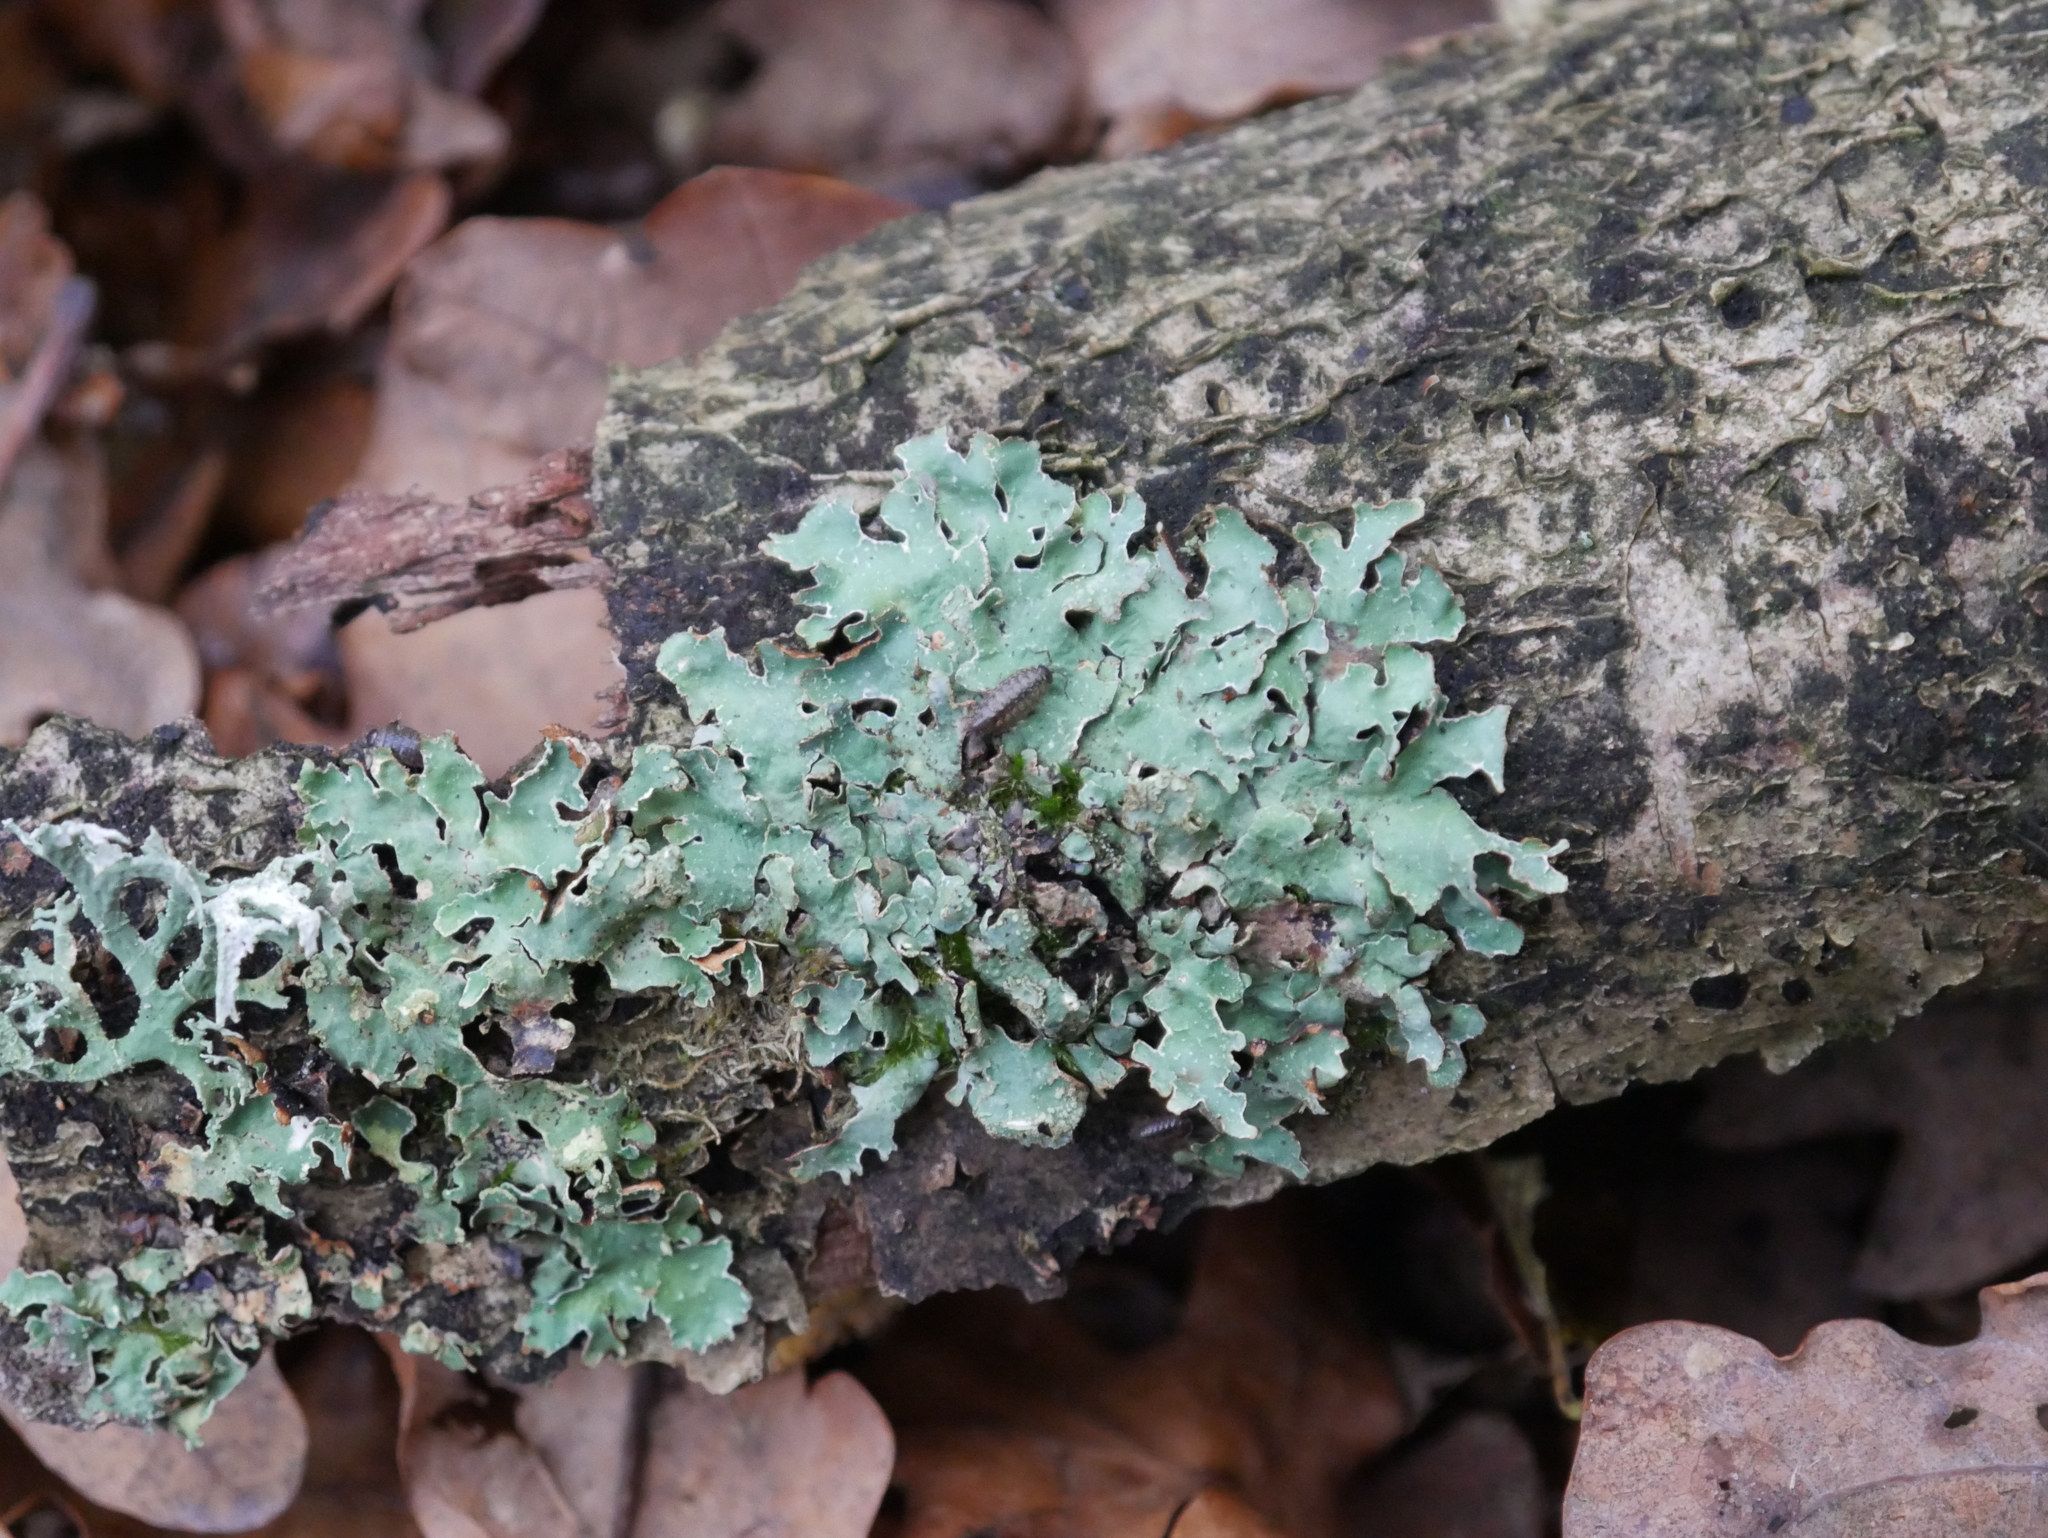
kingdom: Fungi
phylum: Ascomycota
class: Lecanoromycetes
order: Lecanorales
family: Parmeliaceae
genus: Parmelia
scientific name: Parmelia sulcata
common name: Netted shield lichen
